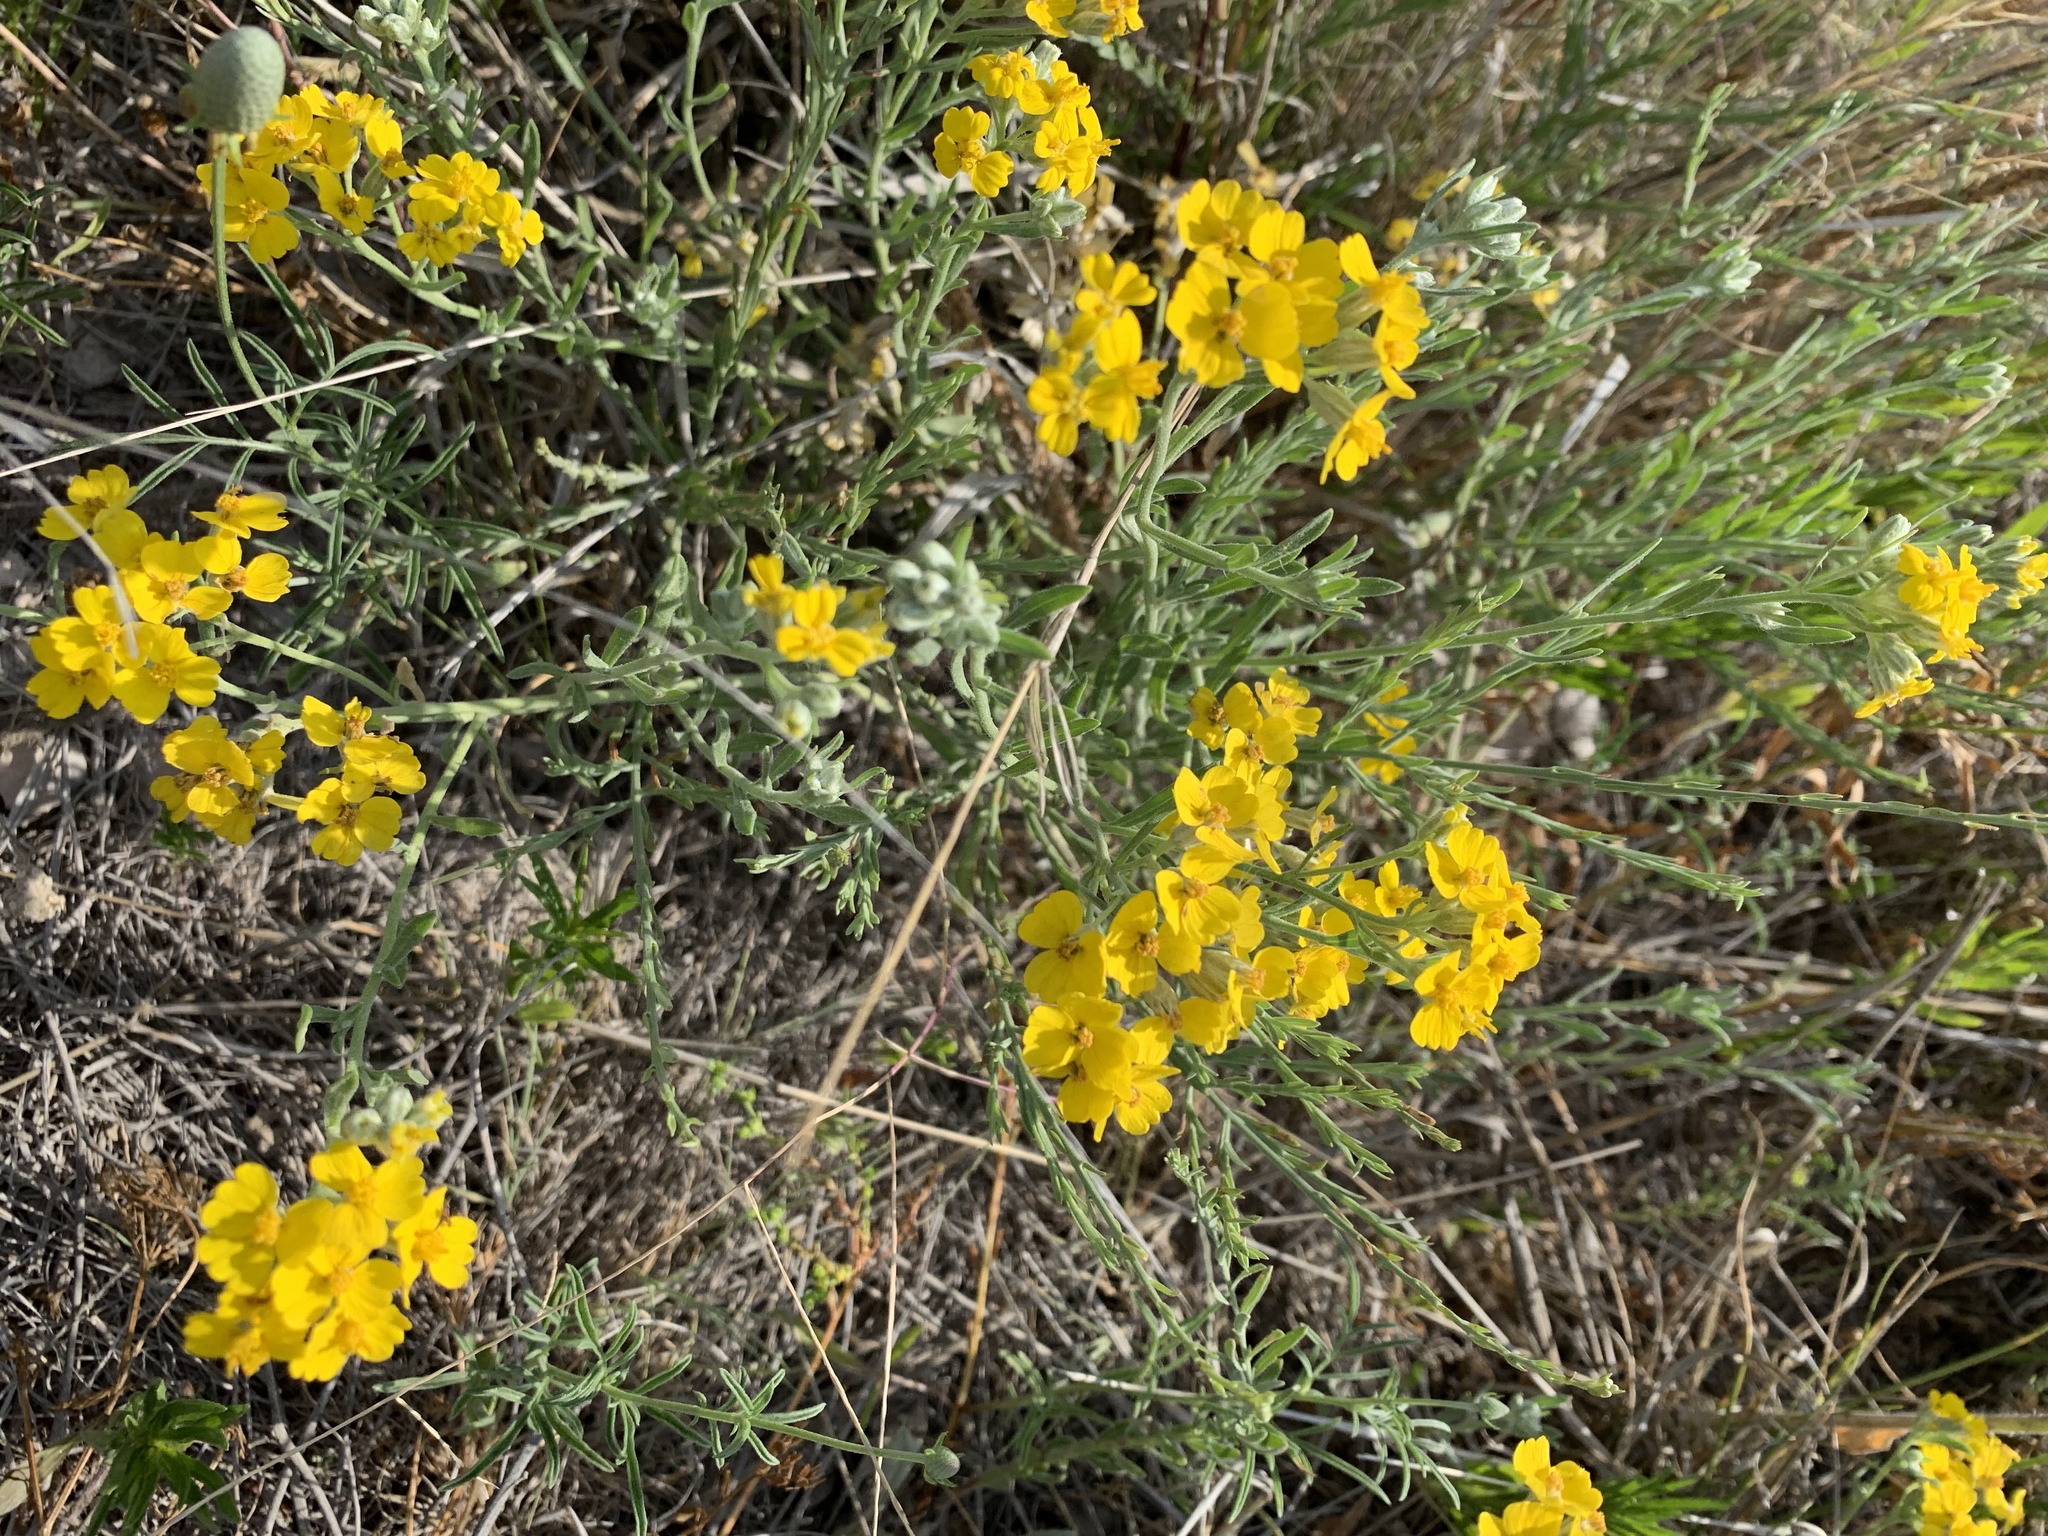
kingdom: Plantae
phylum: Tracheophyta
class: Magnoliopsida
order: Asterales
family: Asteraceae
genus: Psilostrophe
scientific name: Psilostrophe tagetina
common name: Marigold paper-flower
